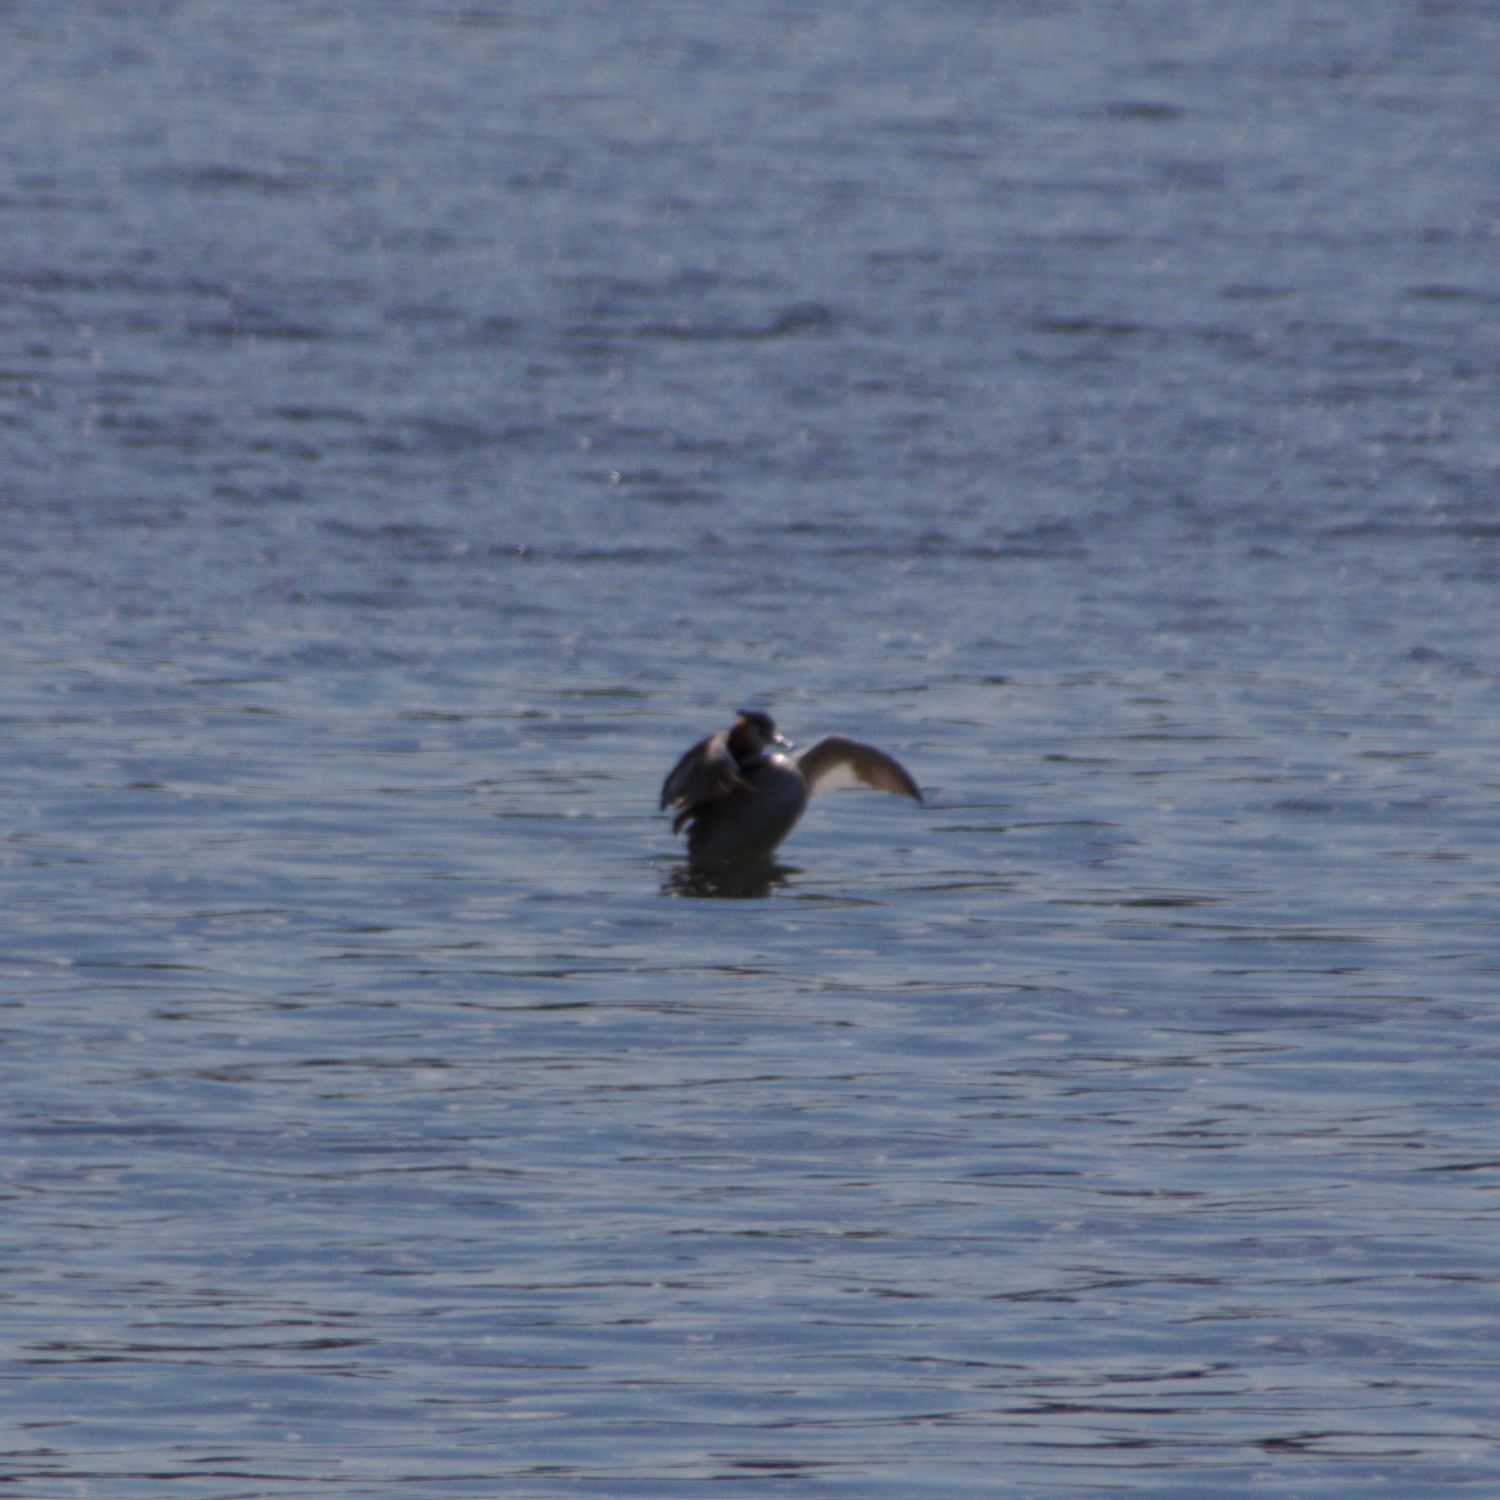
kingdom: Animalia
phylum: Chordata
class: Aves
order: Podicipediformes
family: Podicipedidae
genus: Podiceps
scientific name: Podiceps cristatus
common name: Great crested grebe
